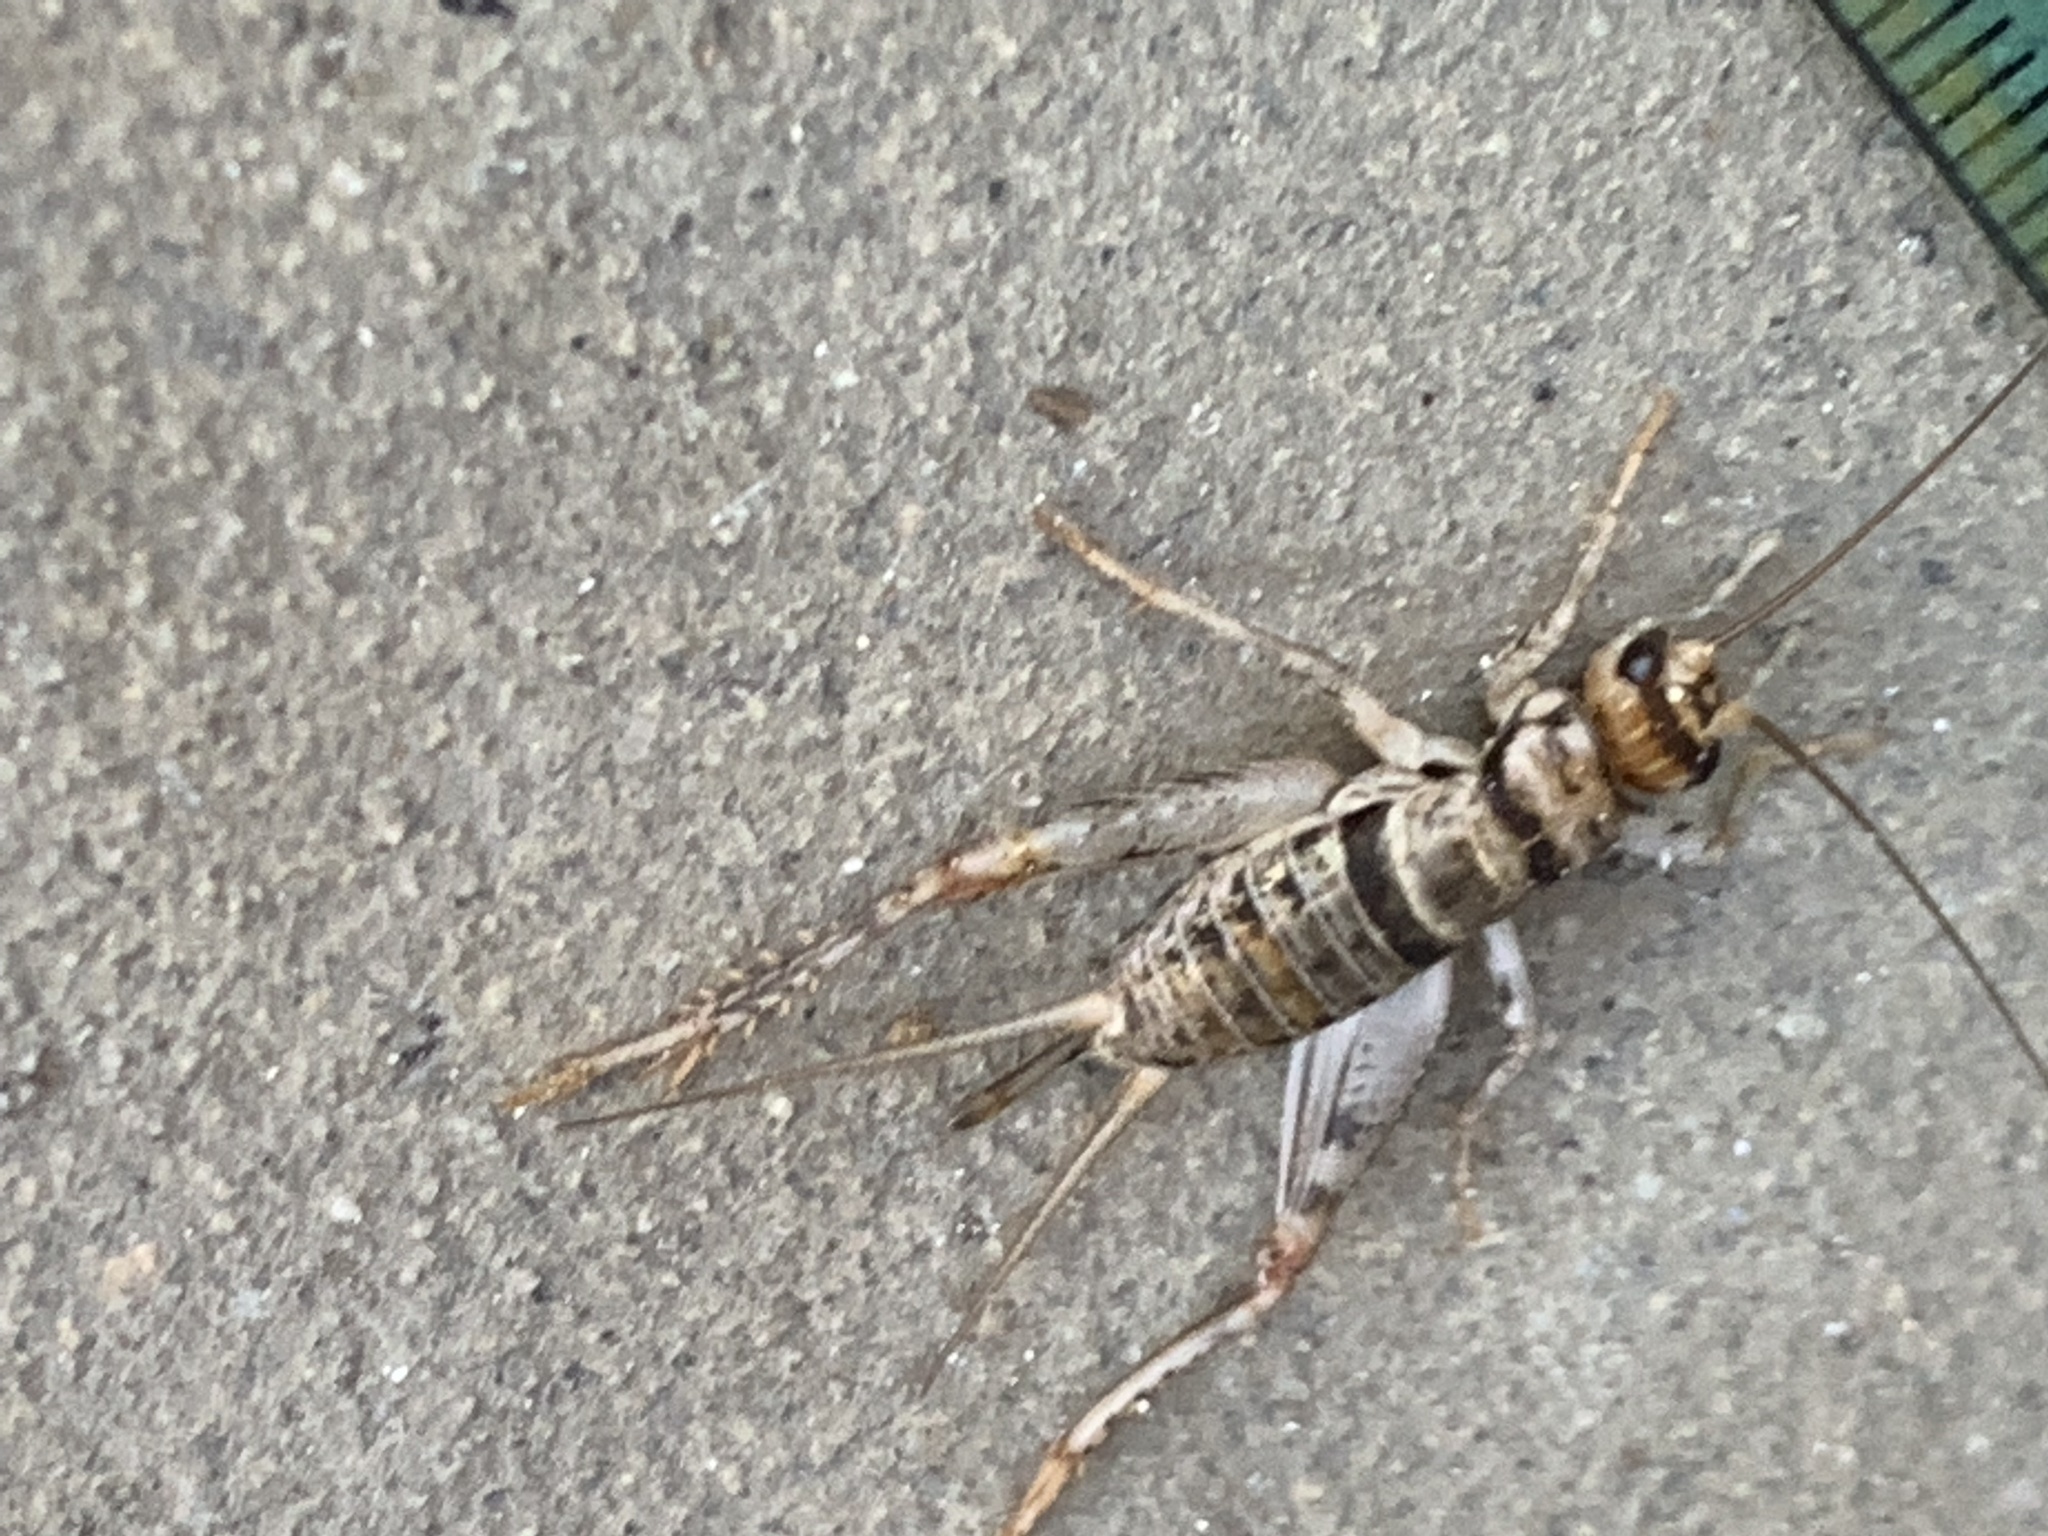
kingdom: Animalia
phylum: Arthropoda
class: Insecta
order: Orthoptera
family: Gryllidae
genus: Gryllodes
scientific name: Gryllodes sigillatus
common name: Tropical house cricket
